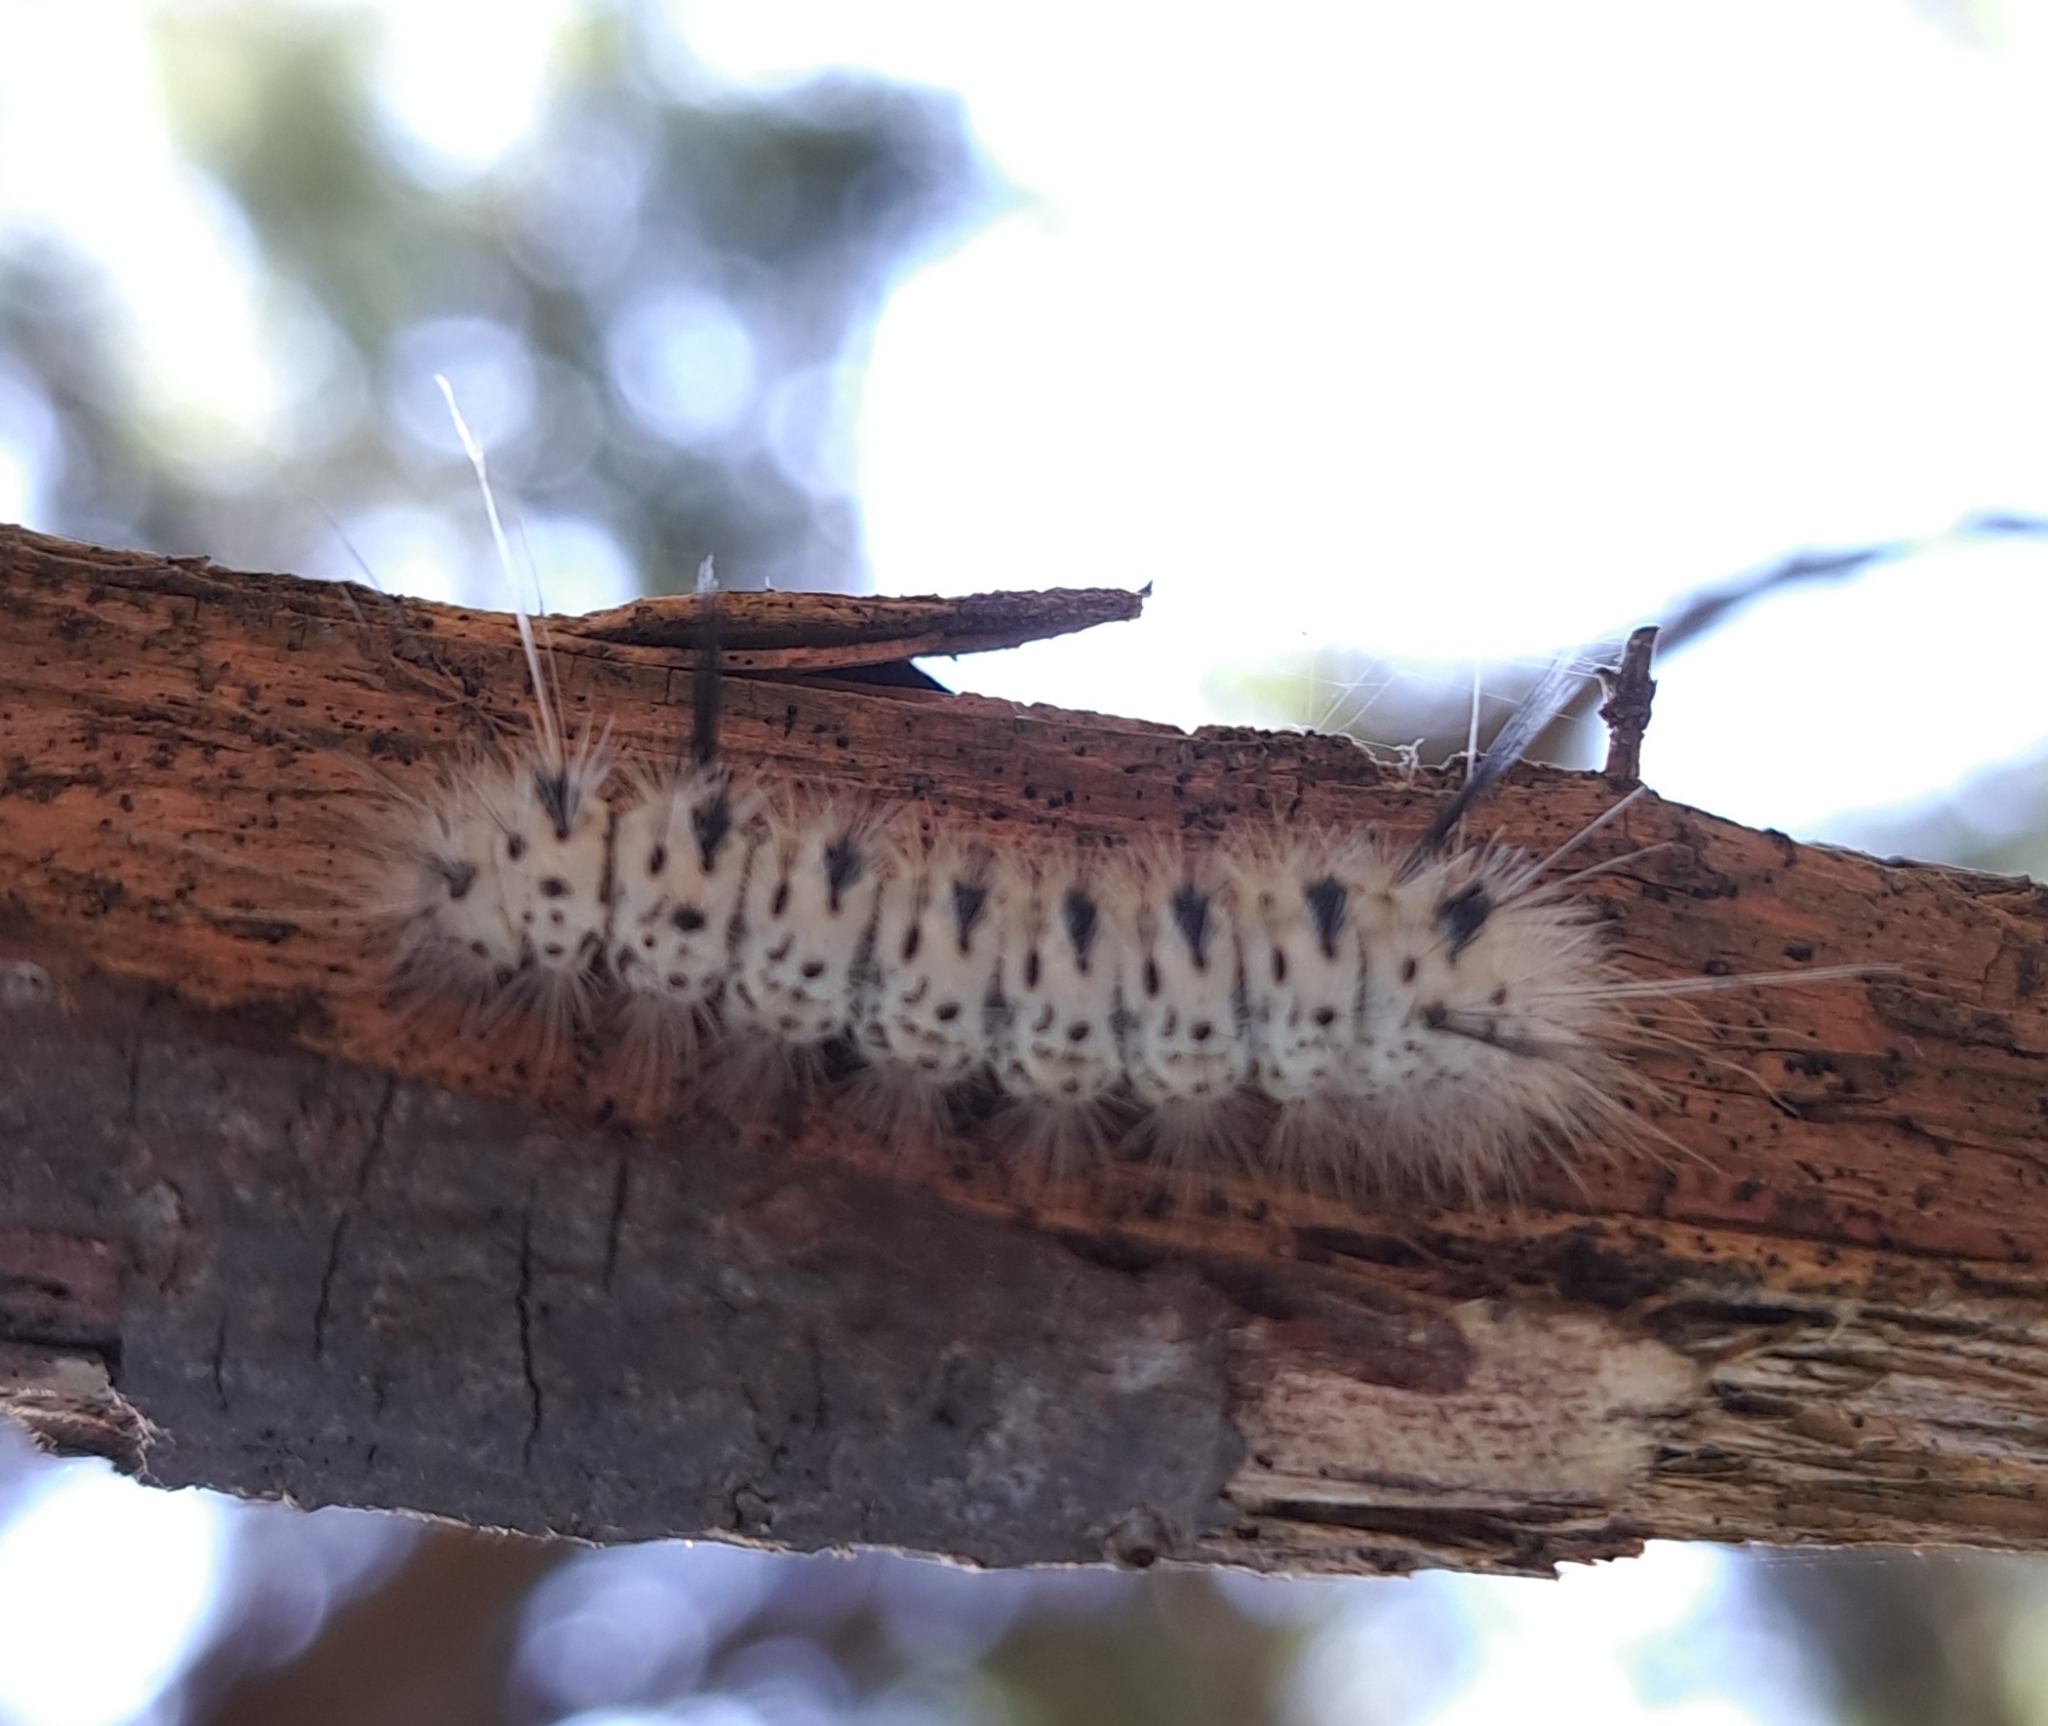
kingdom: Animalia
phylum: Arthropoda
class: Insecta
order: Lepidoptera
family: Erebidae
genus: Lophocampa
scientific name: Lophocampa caryae
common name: Hickory tussock moth
